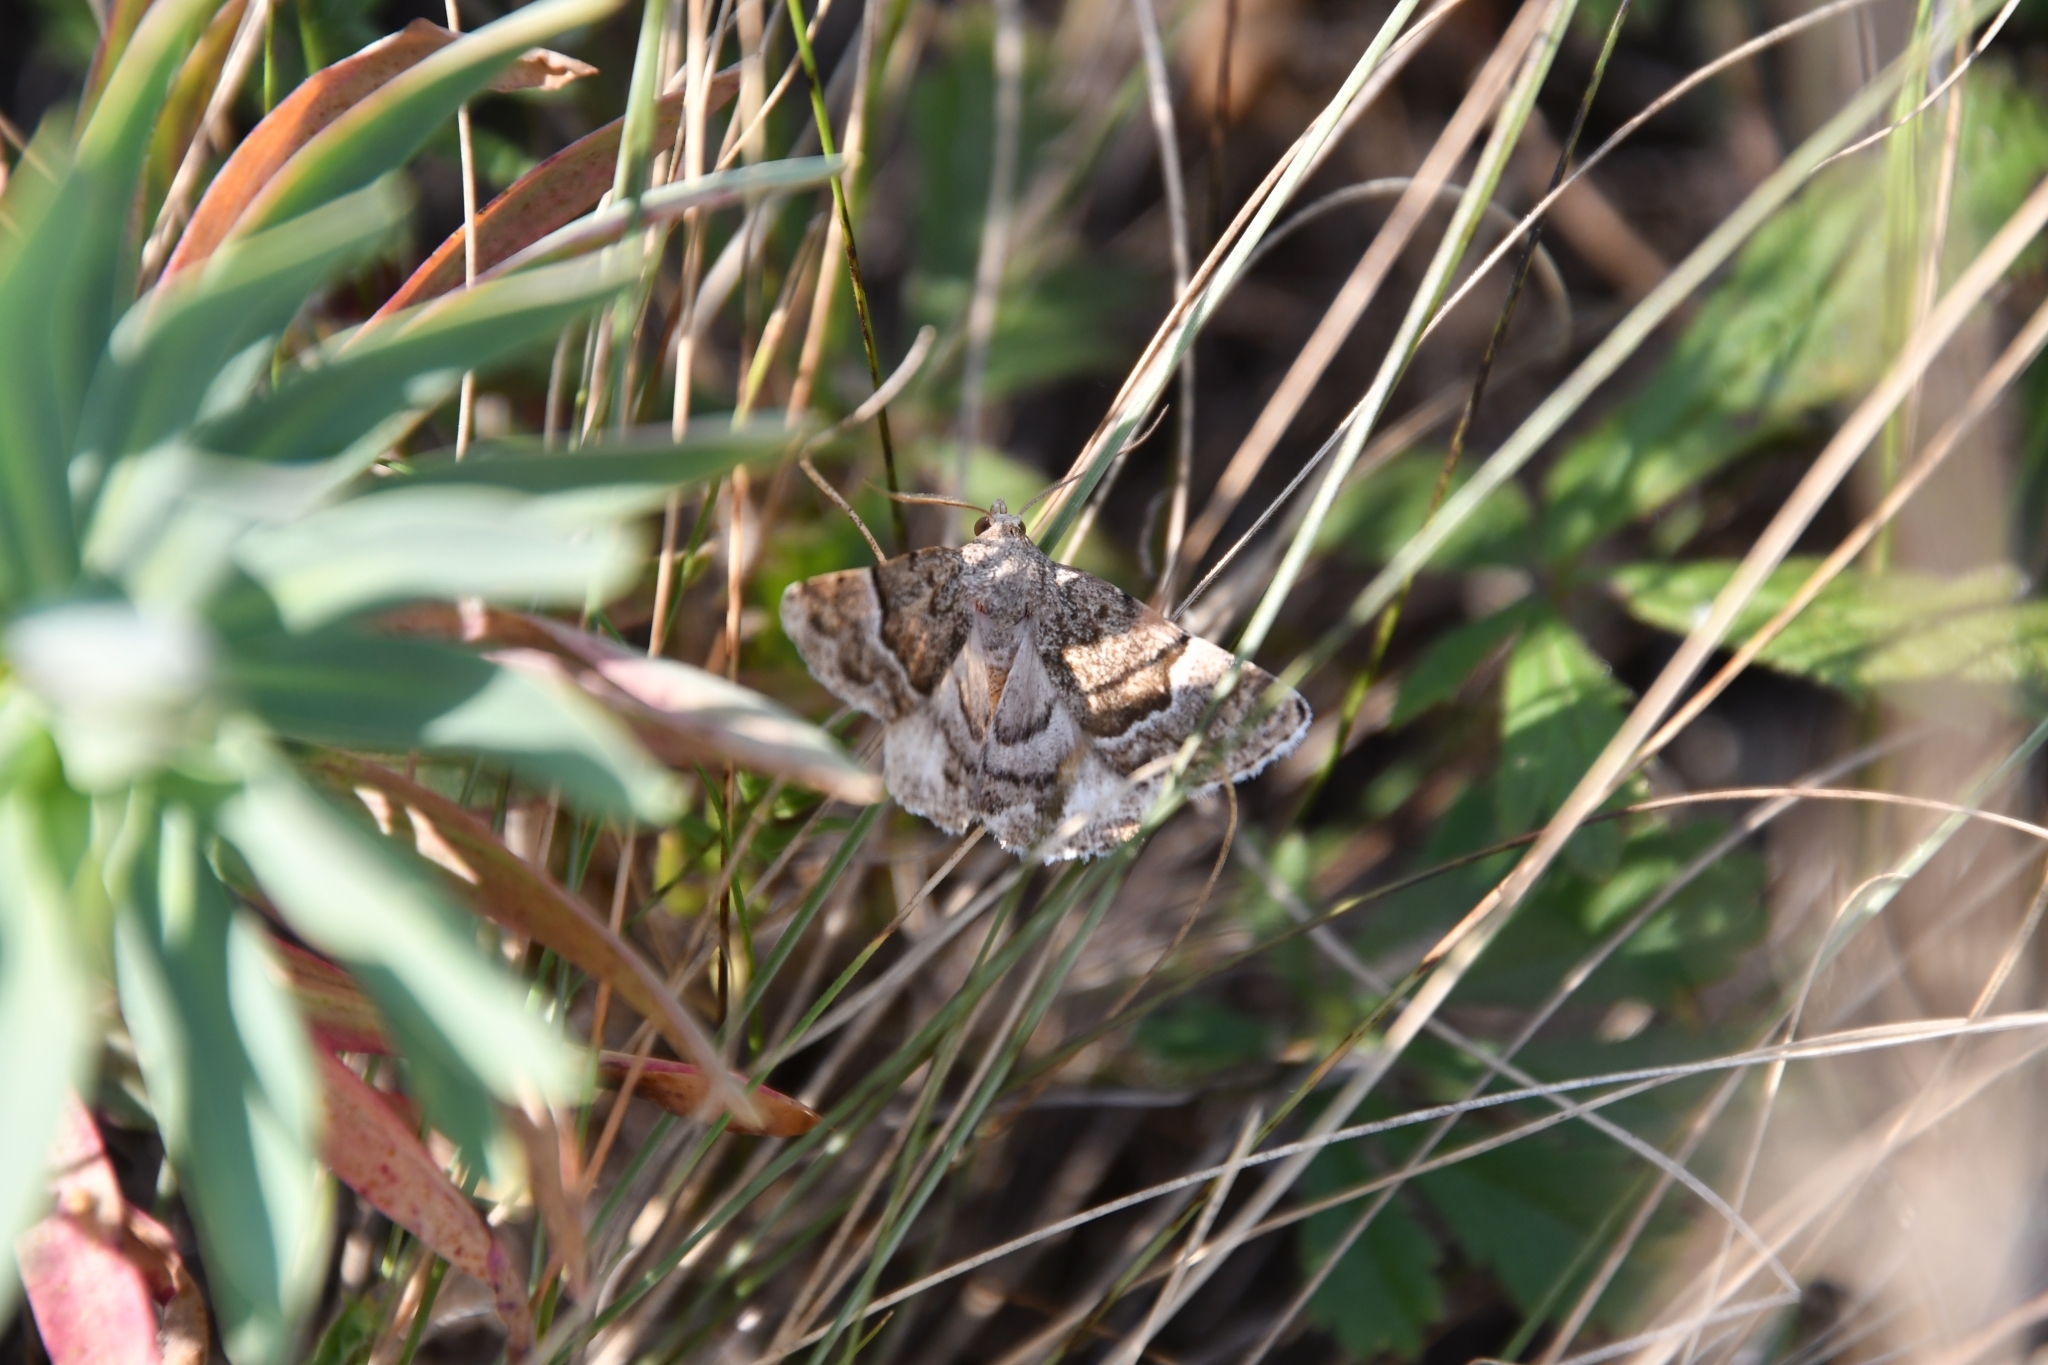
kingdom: Animalia
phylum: Arthropoda
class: Insecta
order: Lepidoptera
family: Noctuidae
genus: Eublemma
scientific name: Eublemma arcuinna
